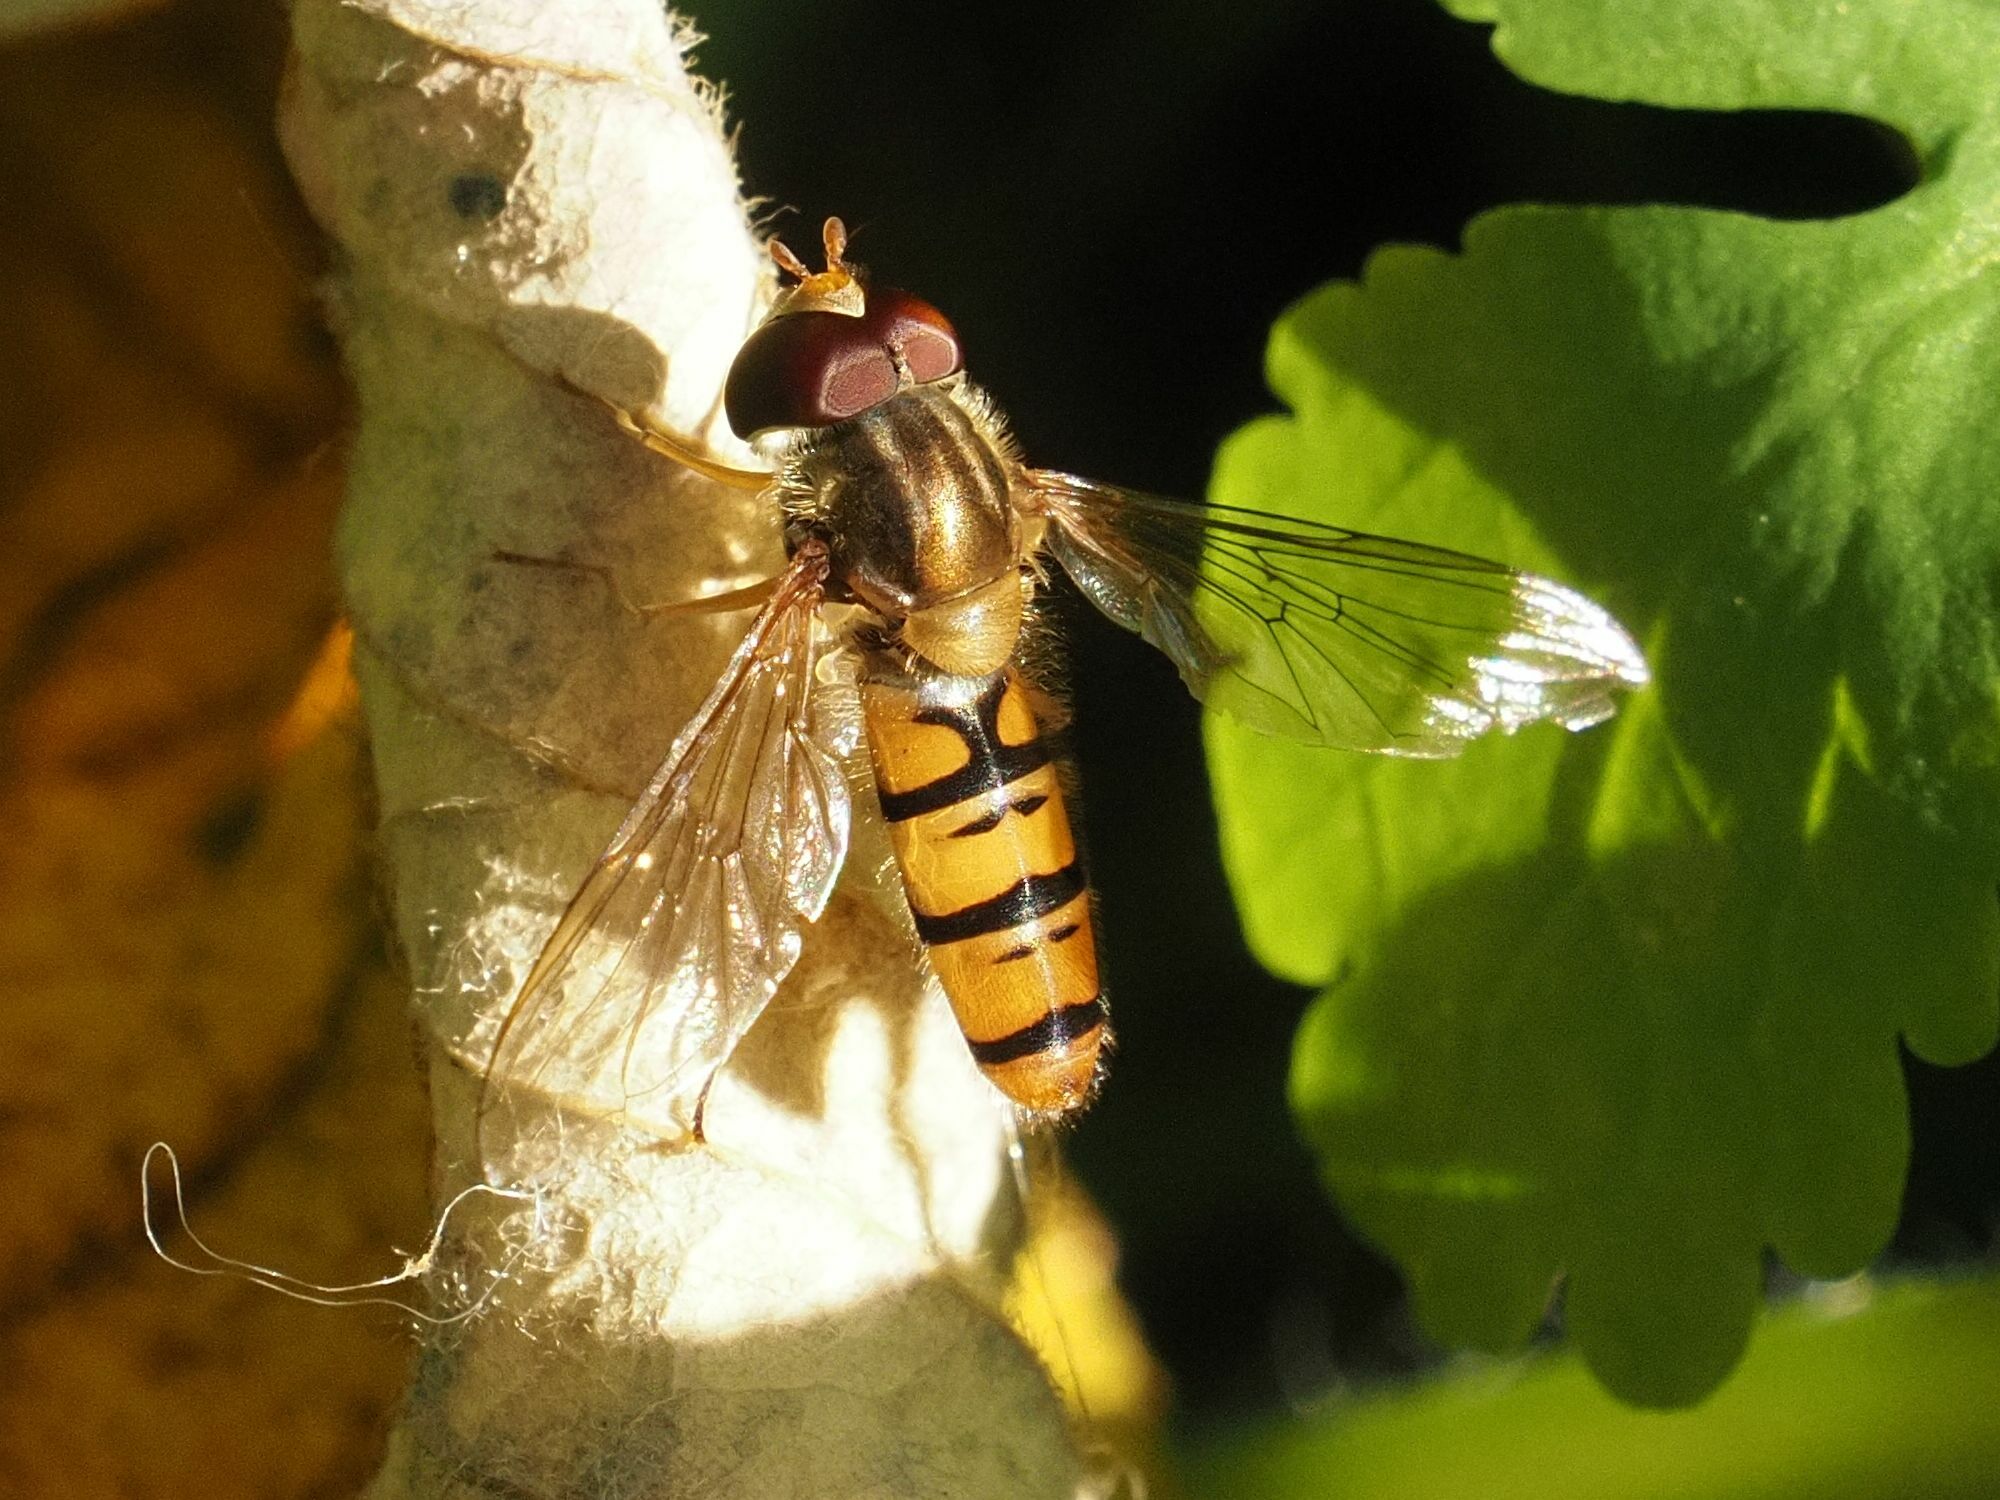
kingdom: Animalia
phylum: Arthropoda
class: Insecta
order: Diptera
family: Syrphidae
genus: Episyrphus
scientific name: Episyrphus balteatus
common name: Marmalade hoverfly
